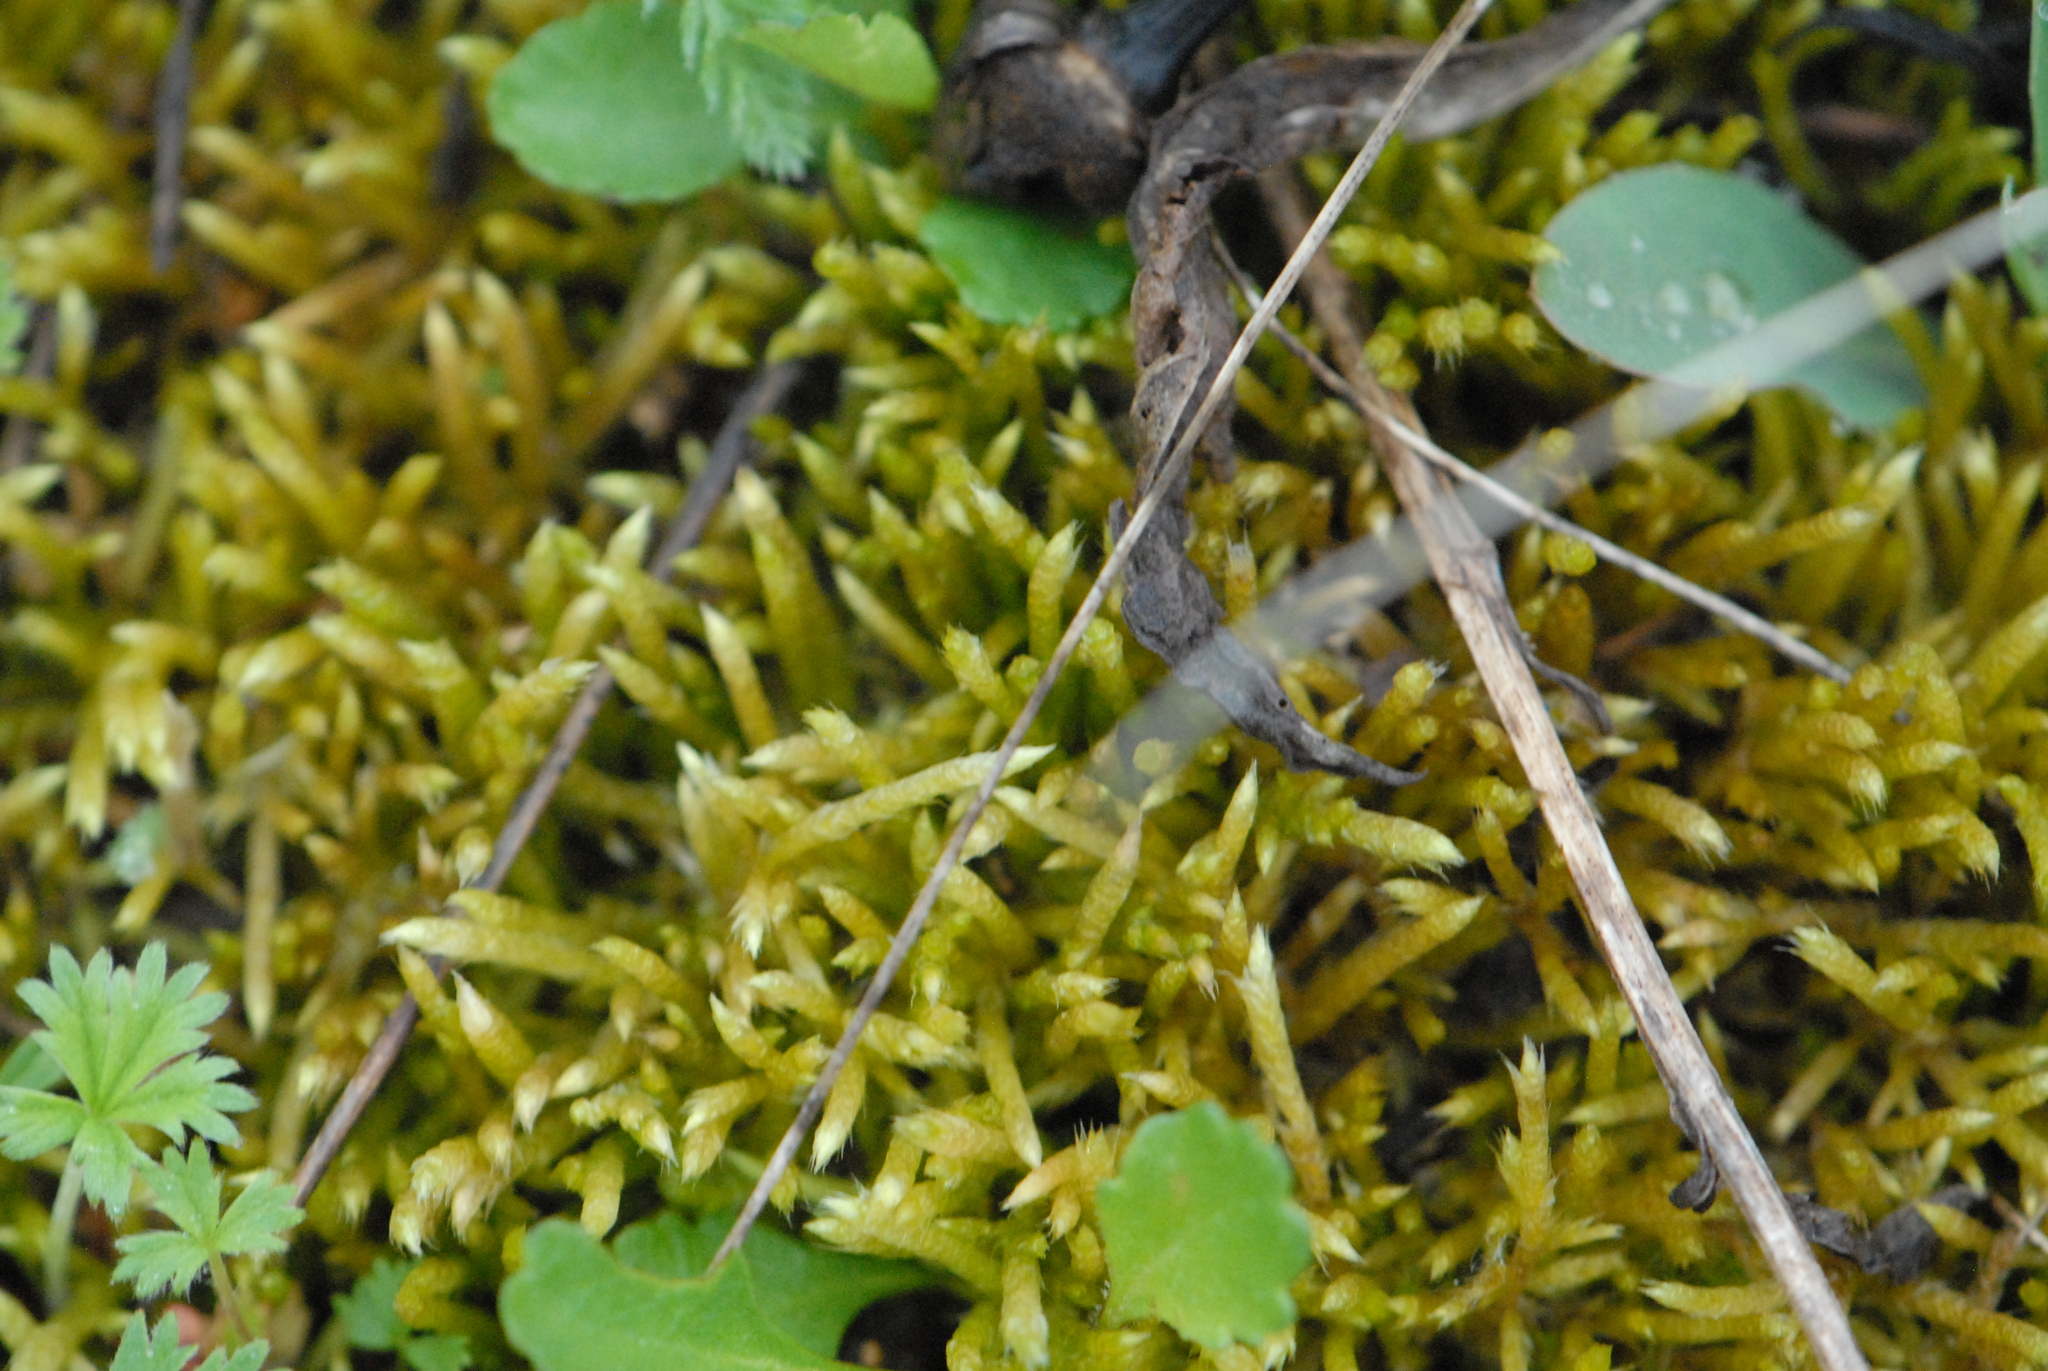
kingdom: Plantae
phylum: Bryophyta
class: Bryopsida
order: Hypnales
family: Brachytheciaceae
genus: Brachythecium
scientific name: Brachythecium albicans
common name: Whitish ragged moss
